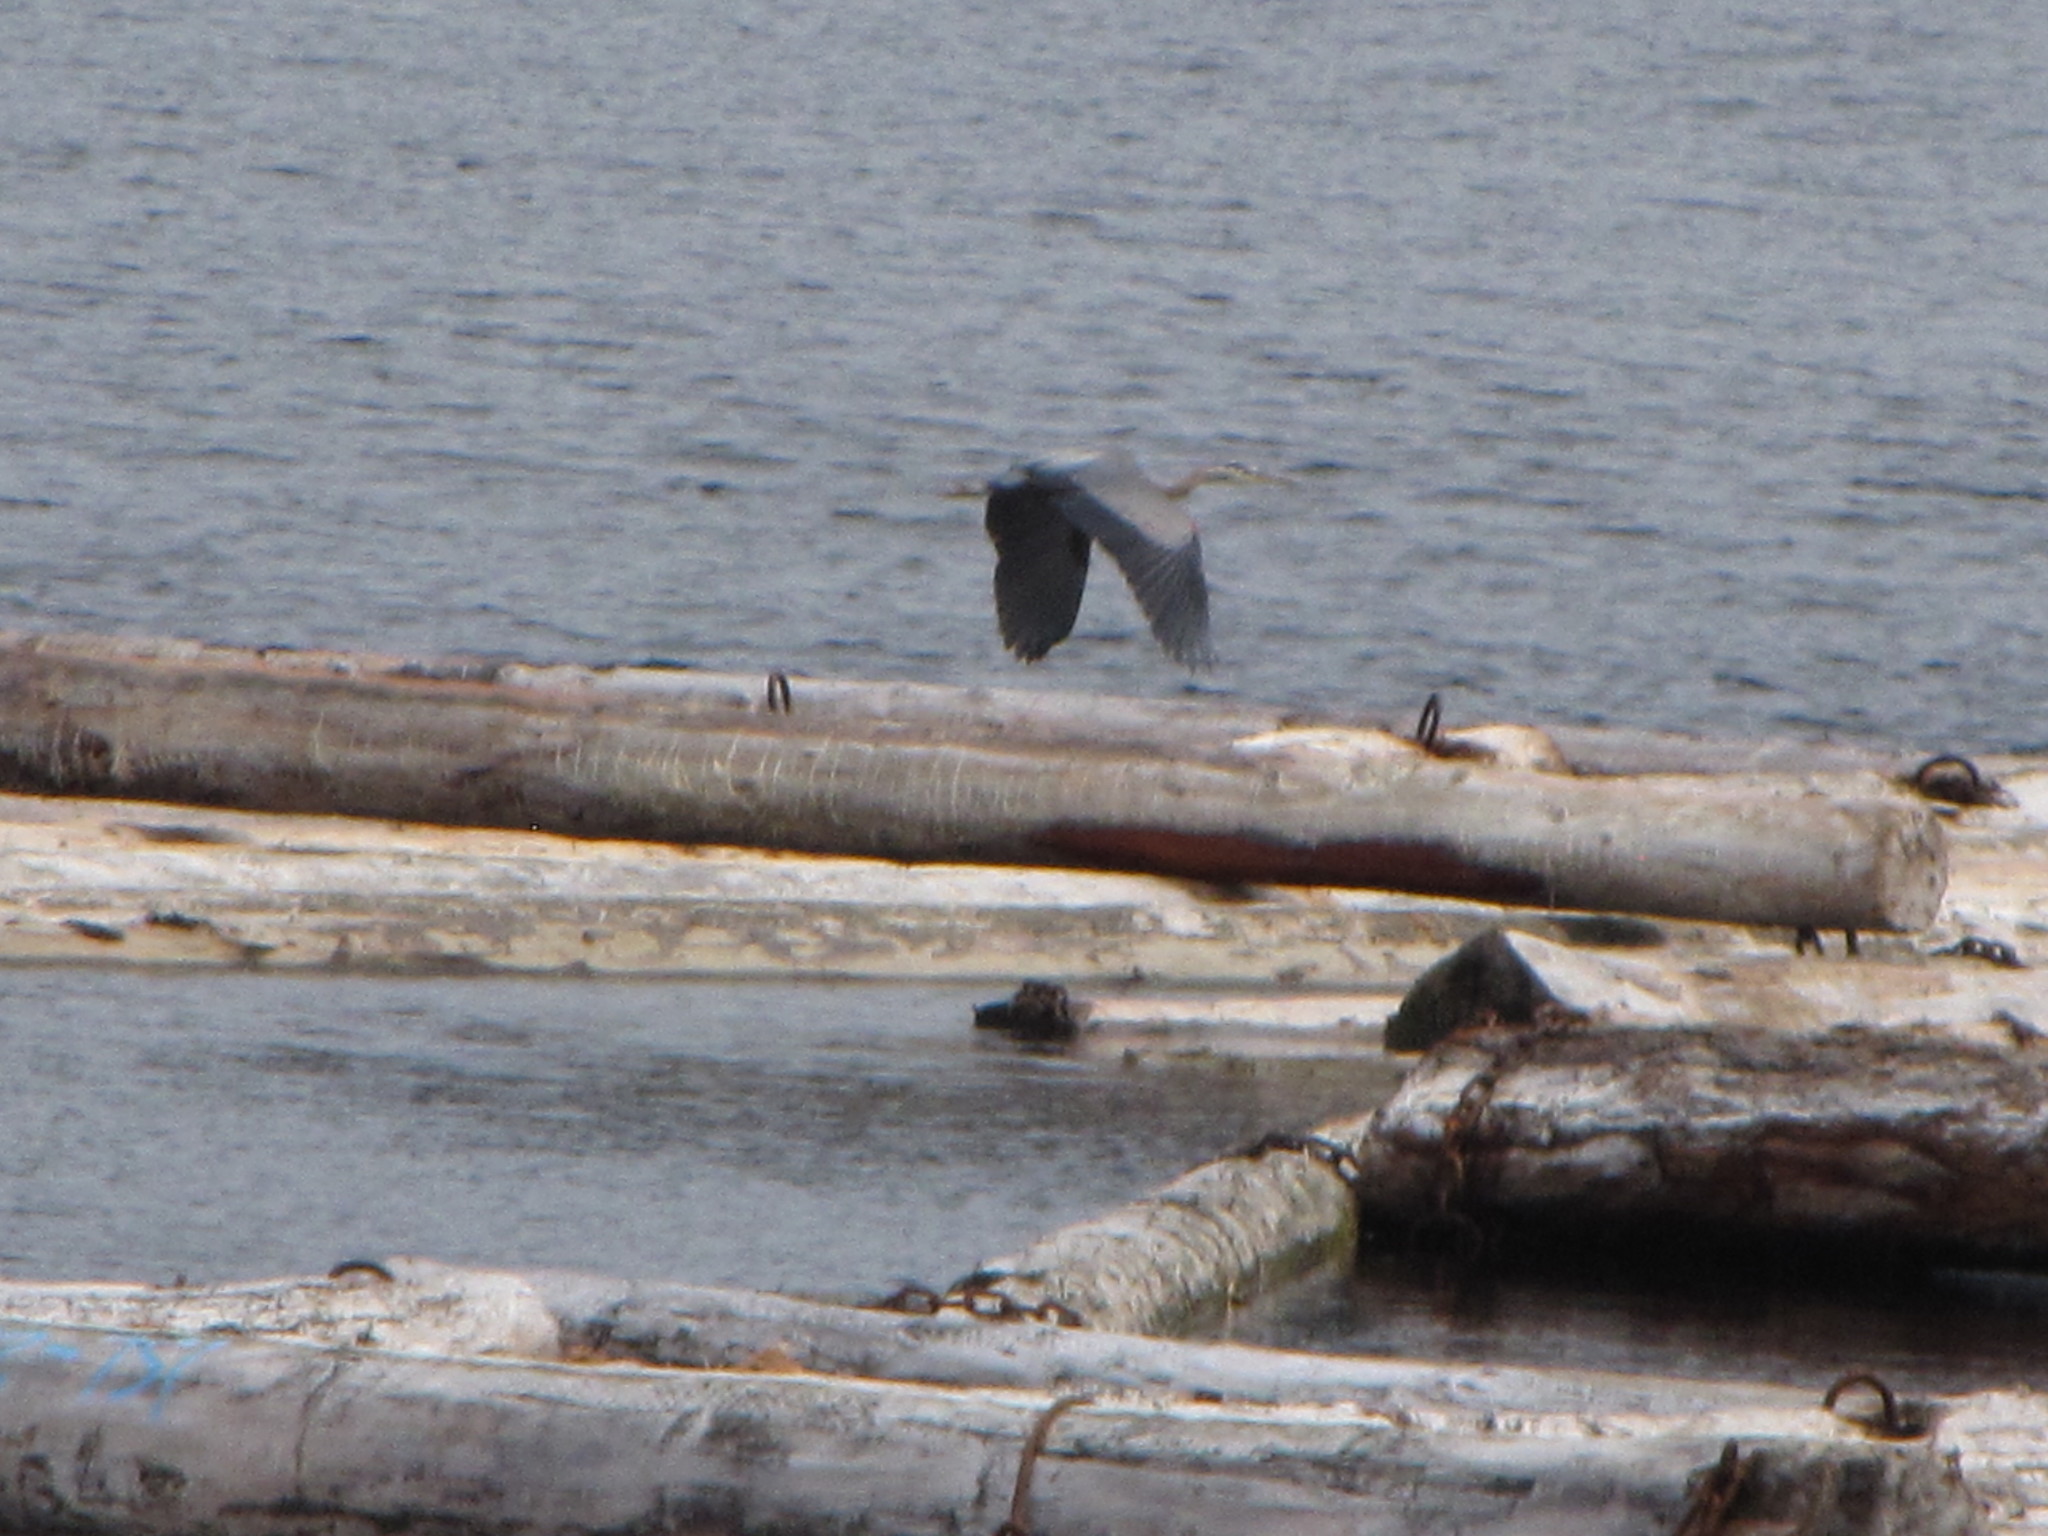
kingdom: Animalia
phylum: Chordata
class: Aves
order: Pelecaniformes
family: Ardeidae
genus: Ardea
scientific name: Ardea herodias
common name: Great blue heron
